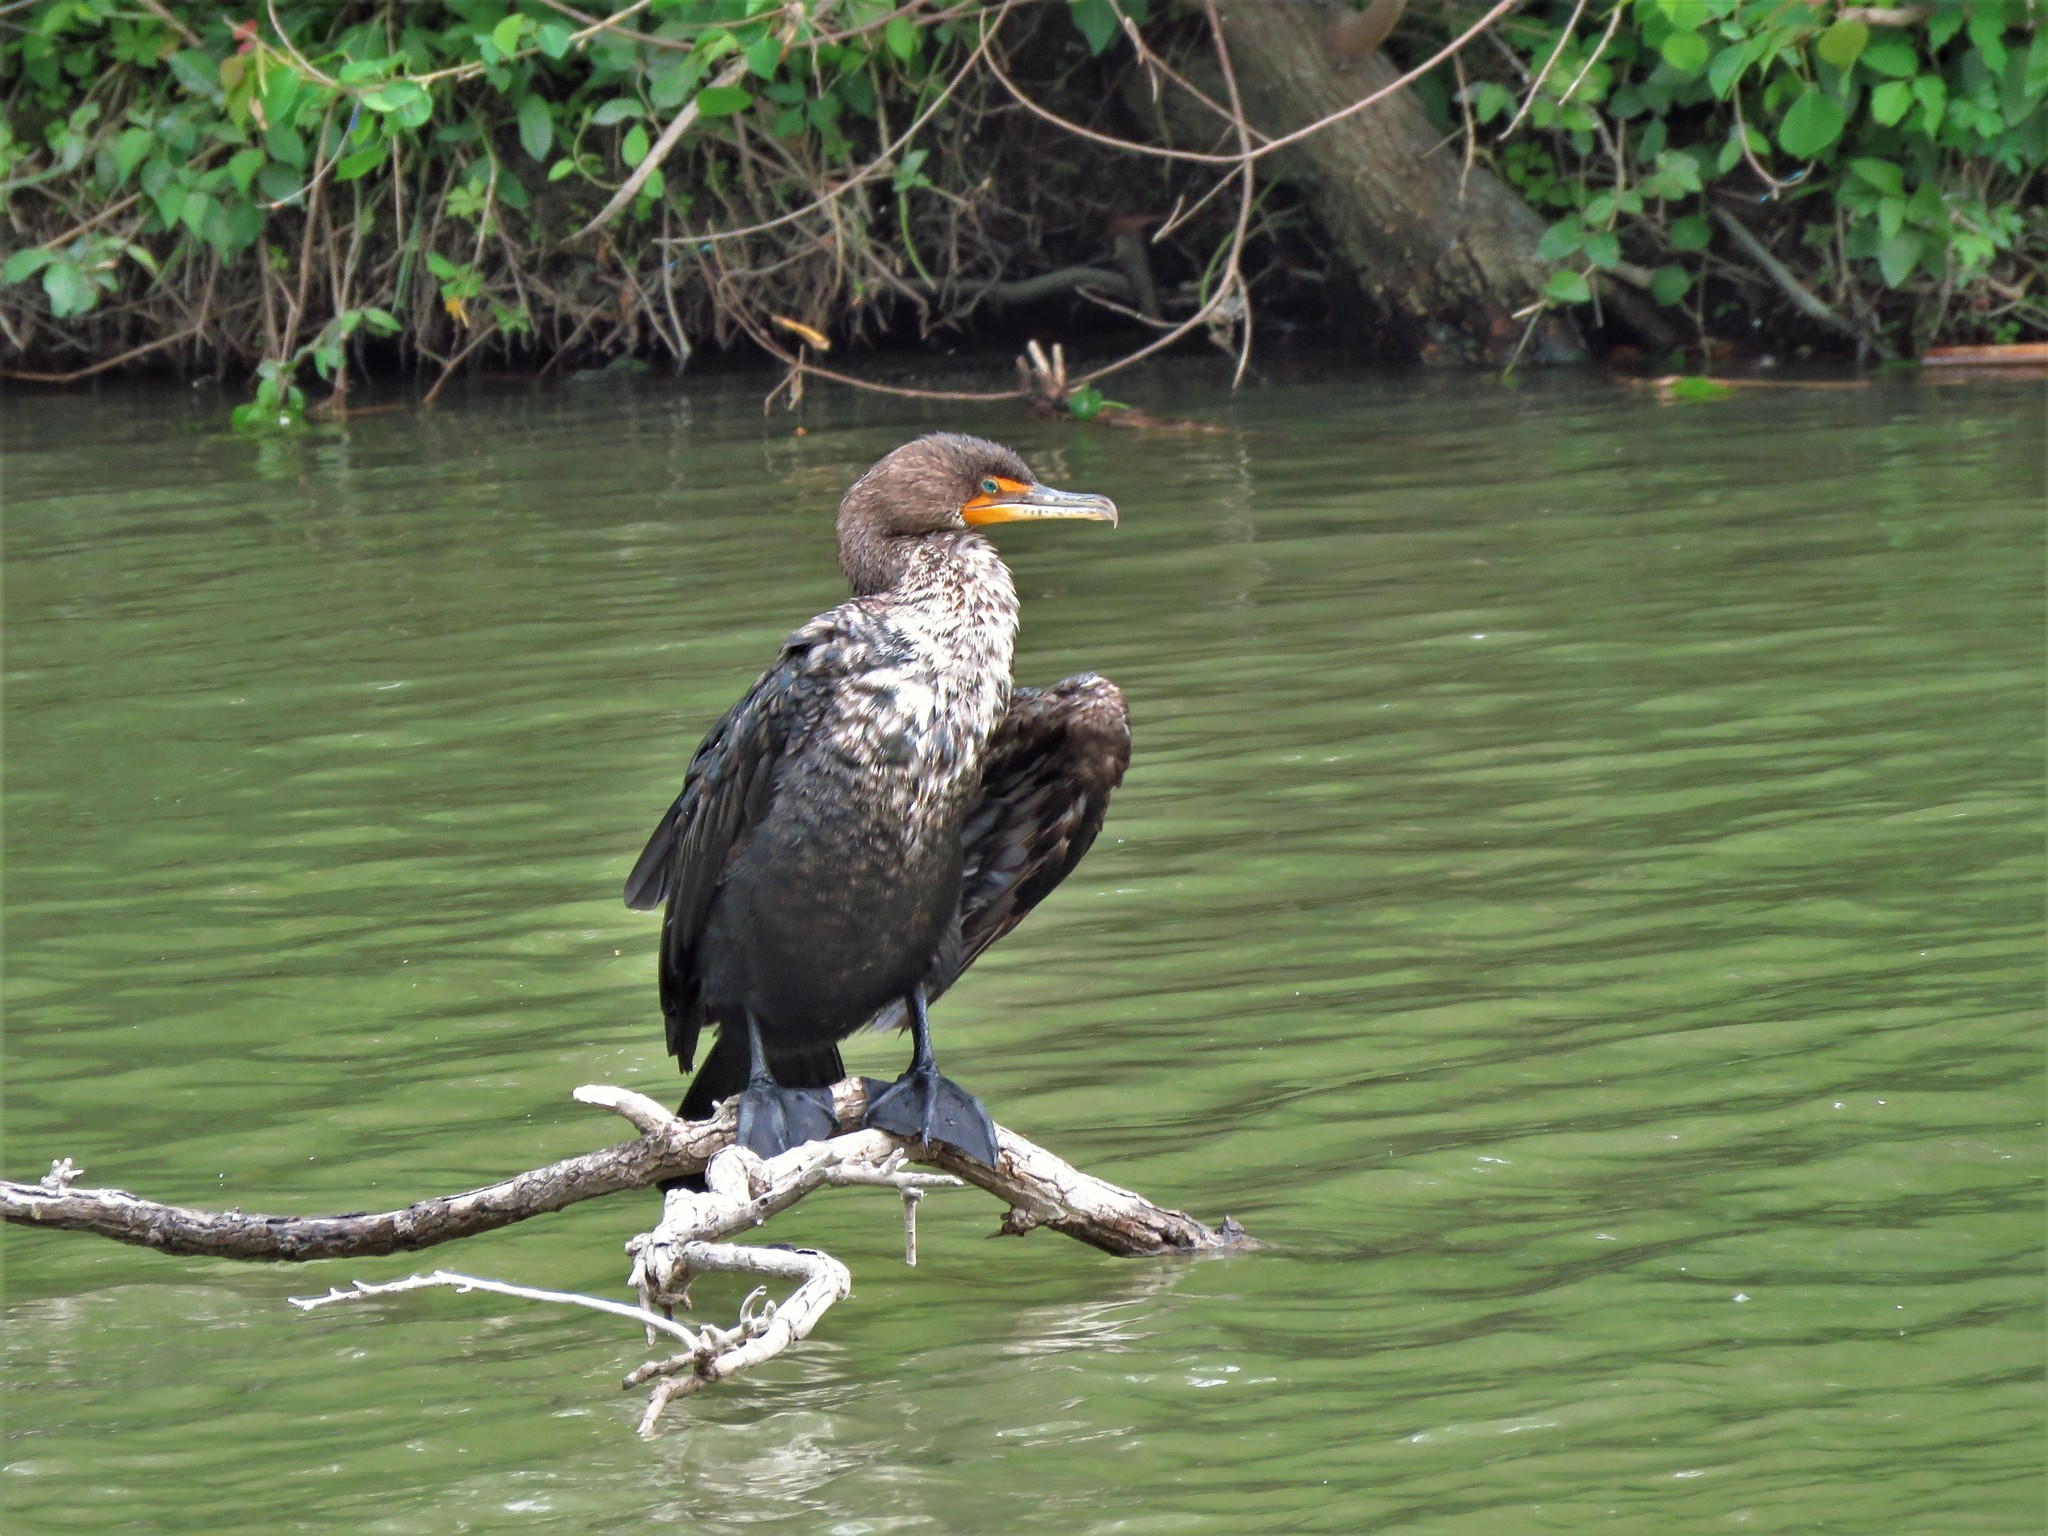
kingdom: Animalia
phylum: Chordata
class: Aves
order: Suliformes
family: Phalacrocoracidae
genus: Phalacrocorax
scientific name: Phalacrocorax auritus
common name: Double-crested cormorant
